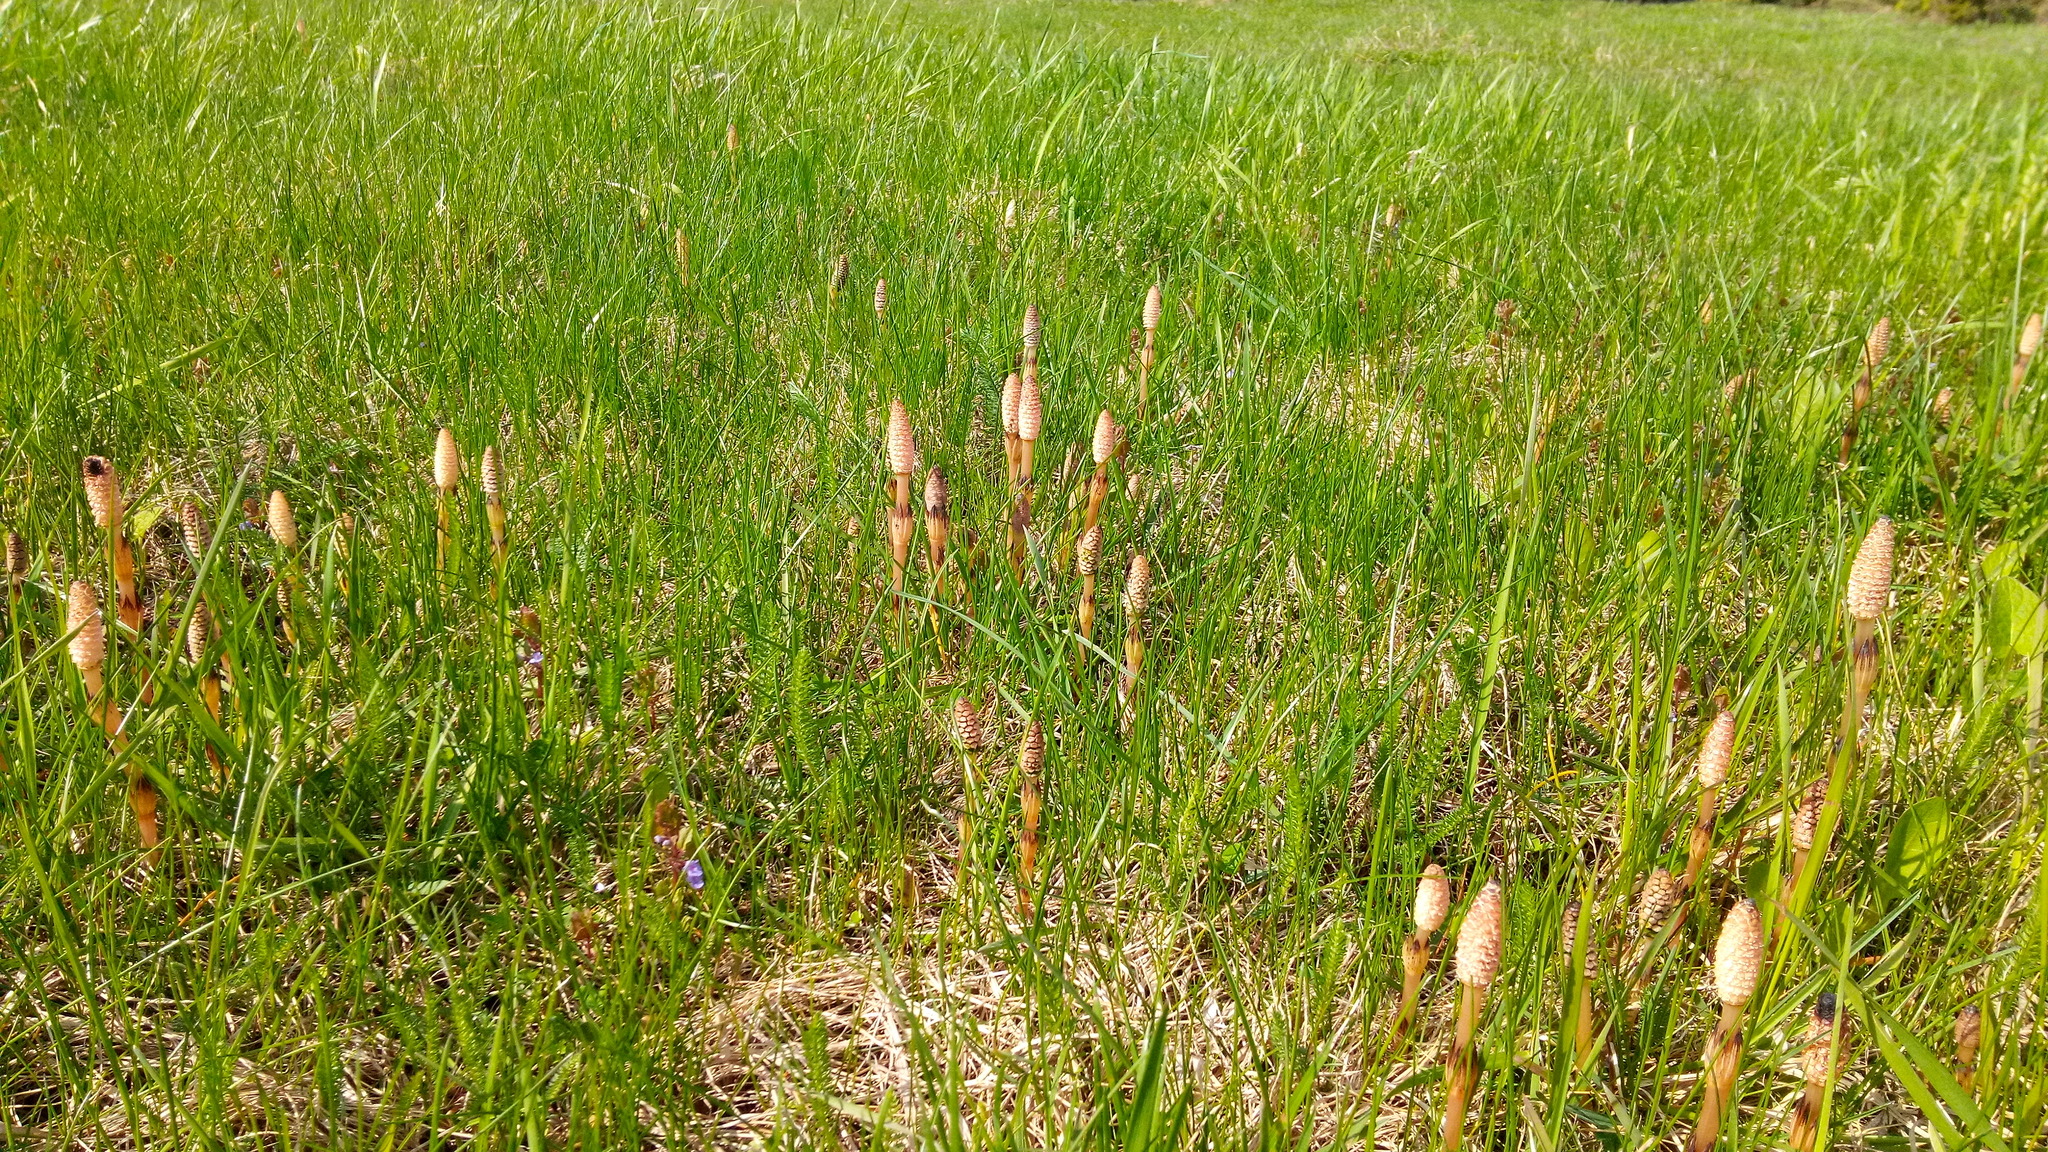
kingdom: Plantae
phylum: Tracheophyta
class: Polypodiopsida
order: Equisetales
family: Equisetaceae
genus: Equisetum
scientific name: Equisetum arvense
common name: Field horsetail
